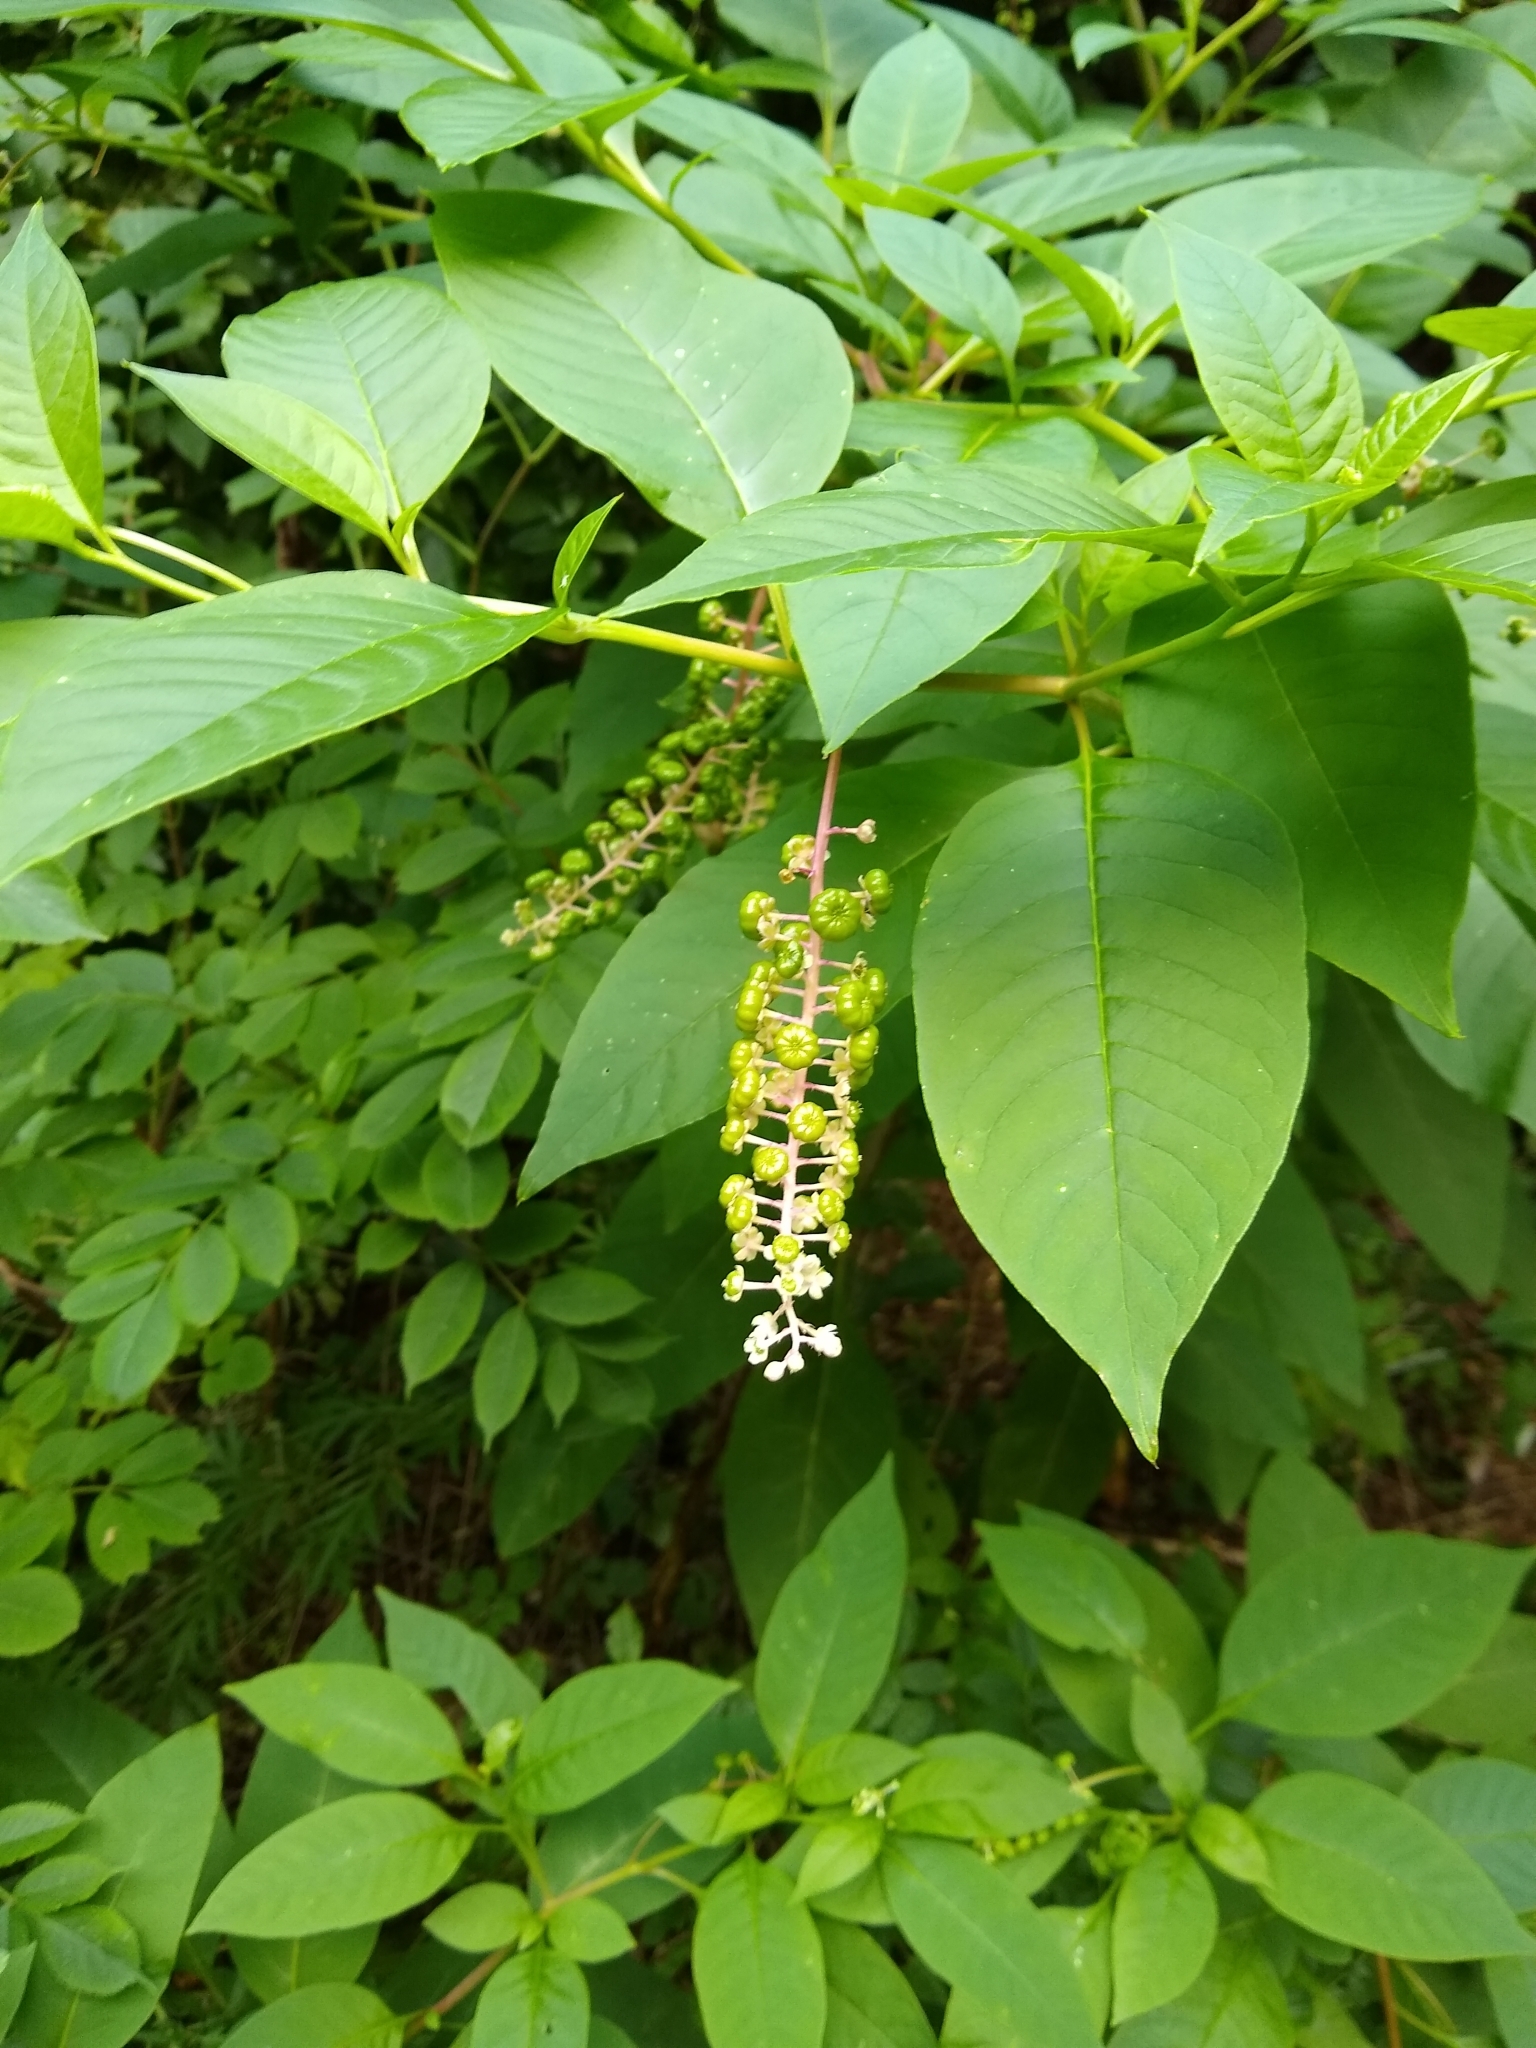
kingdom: Plantae
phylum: Tracheophyta
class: Magnoliopsida
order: Caryophyllales
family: Phytolaccaceae
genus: Phytolacca
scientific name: Phytolacca americana
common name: American pokeweed
